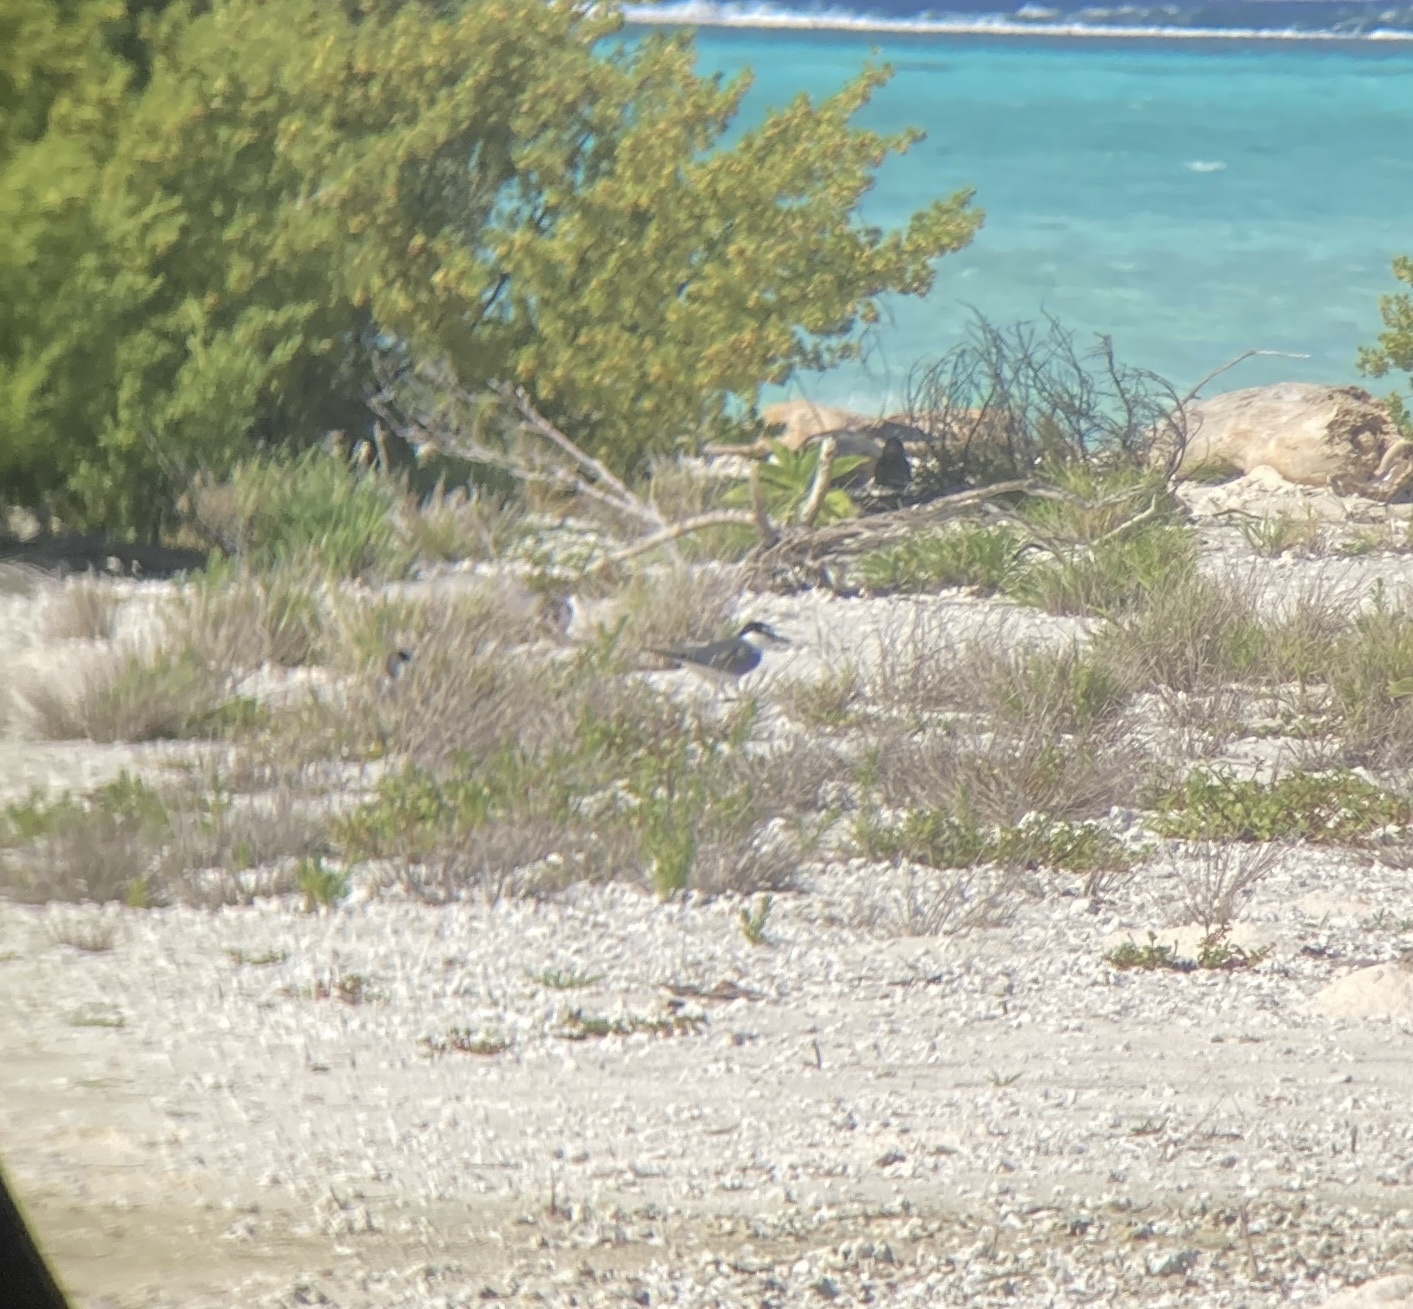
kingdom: Animalia
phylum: Chordata
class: Aves
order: Charadriiformes
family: Laridae
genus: Onychoprion
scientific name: Onychoprion lunatus
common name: Gray-backed tern
